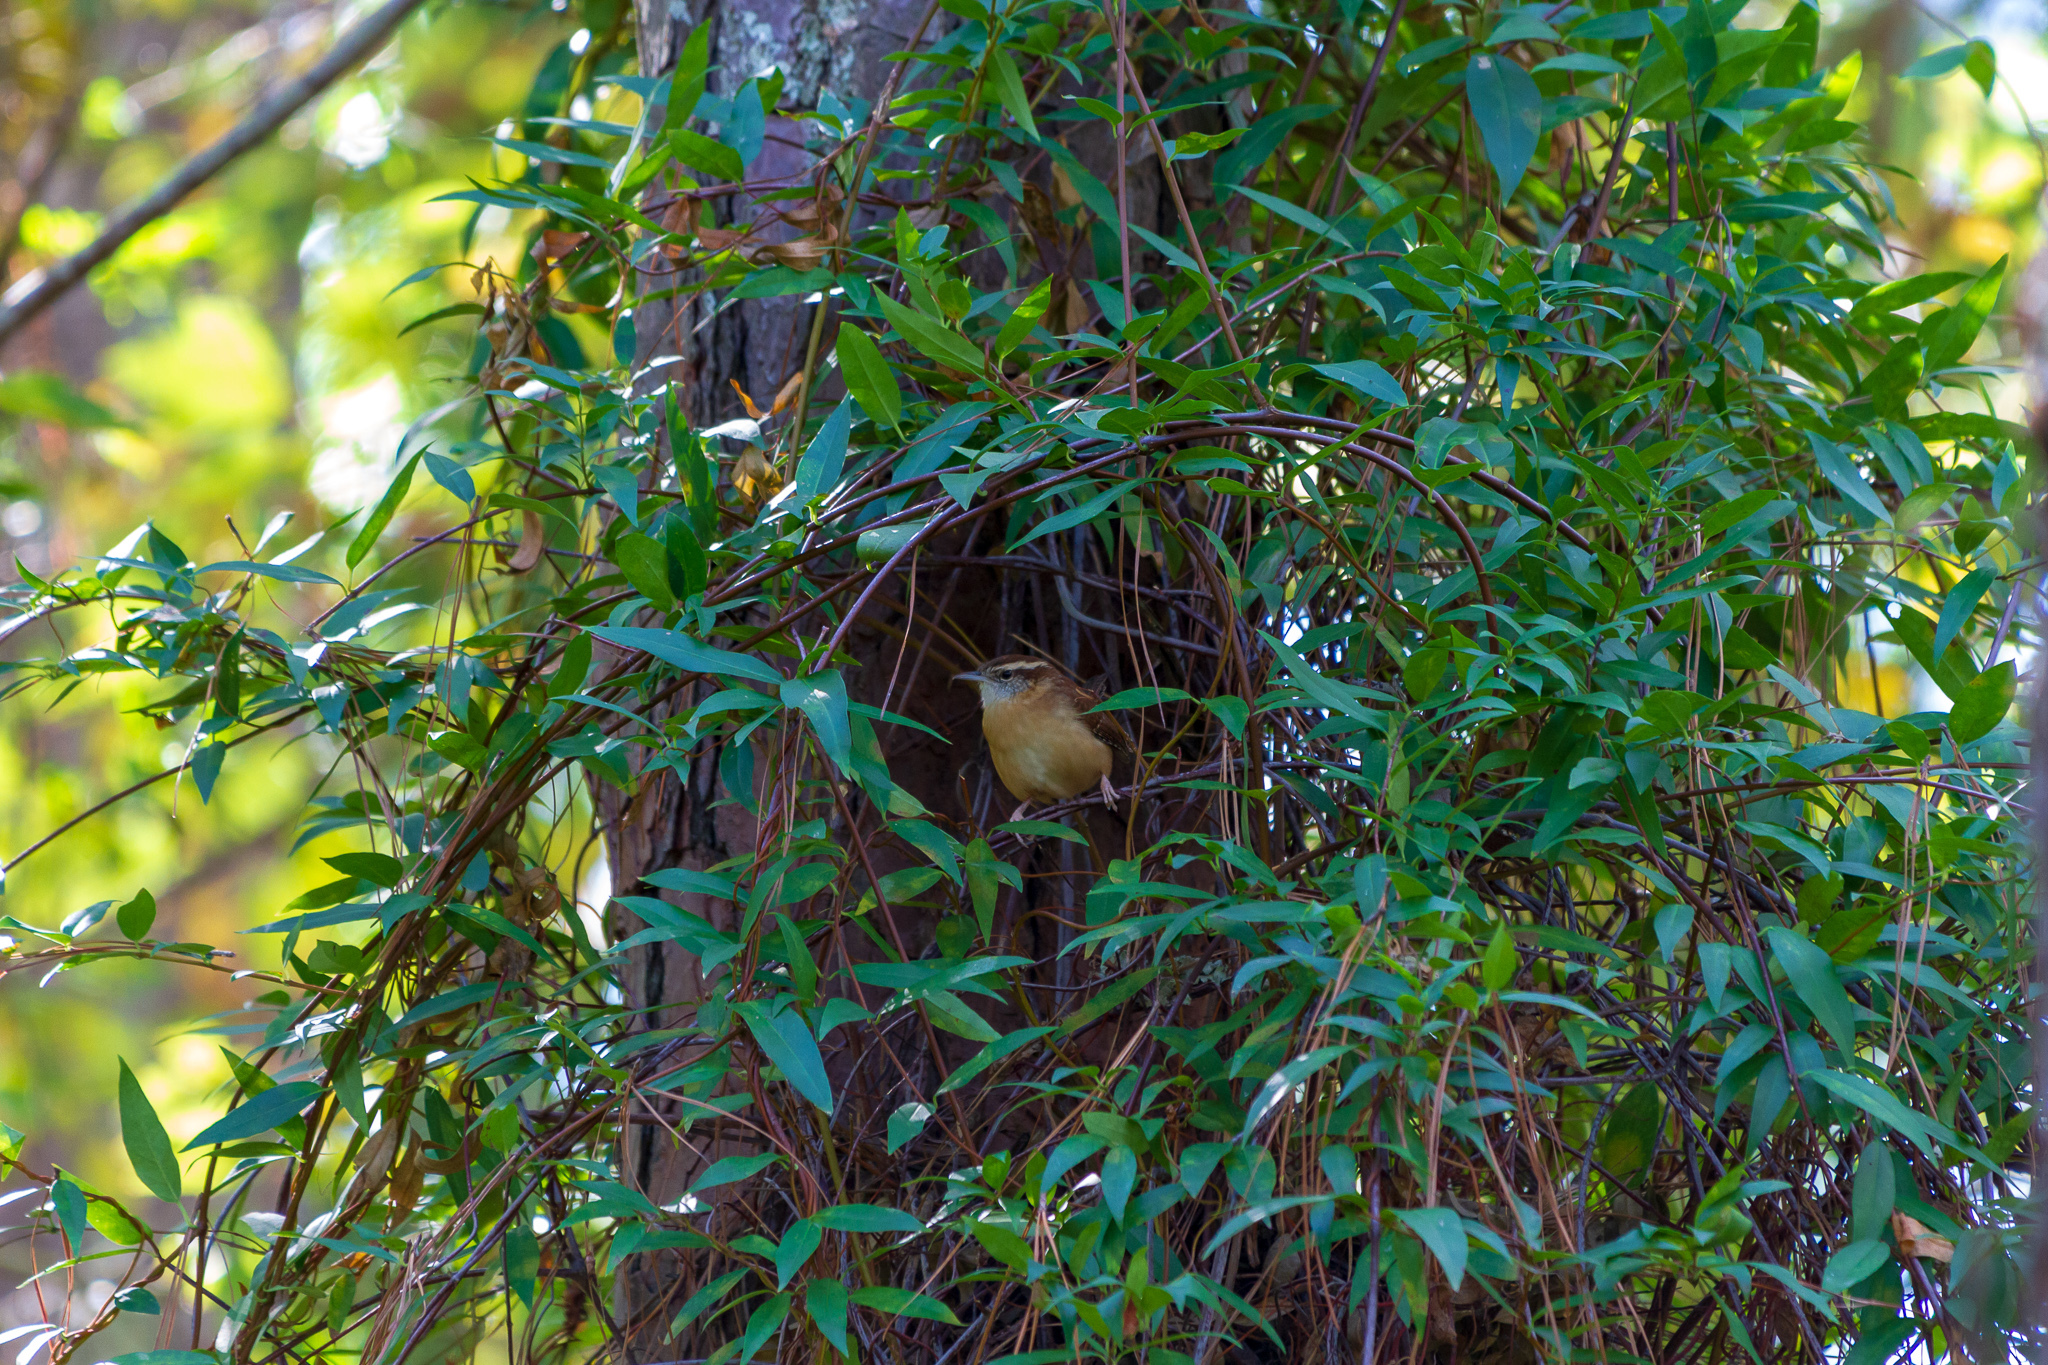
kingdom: Animalia
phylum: Chordata
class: Aves
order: Passeriformes
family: Troglodytidae
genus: Thryothorus
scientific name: Thryothorus ludovicianus
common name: Carolina wren
